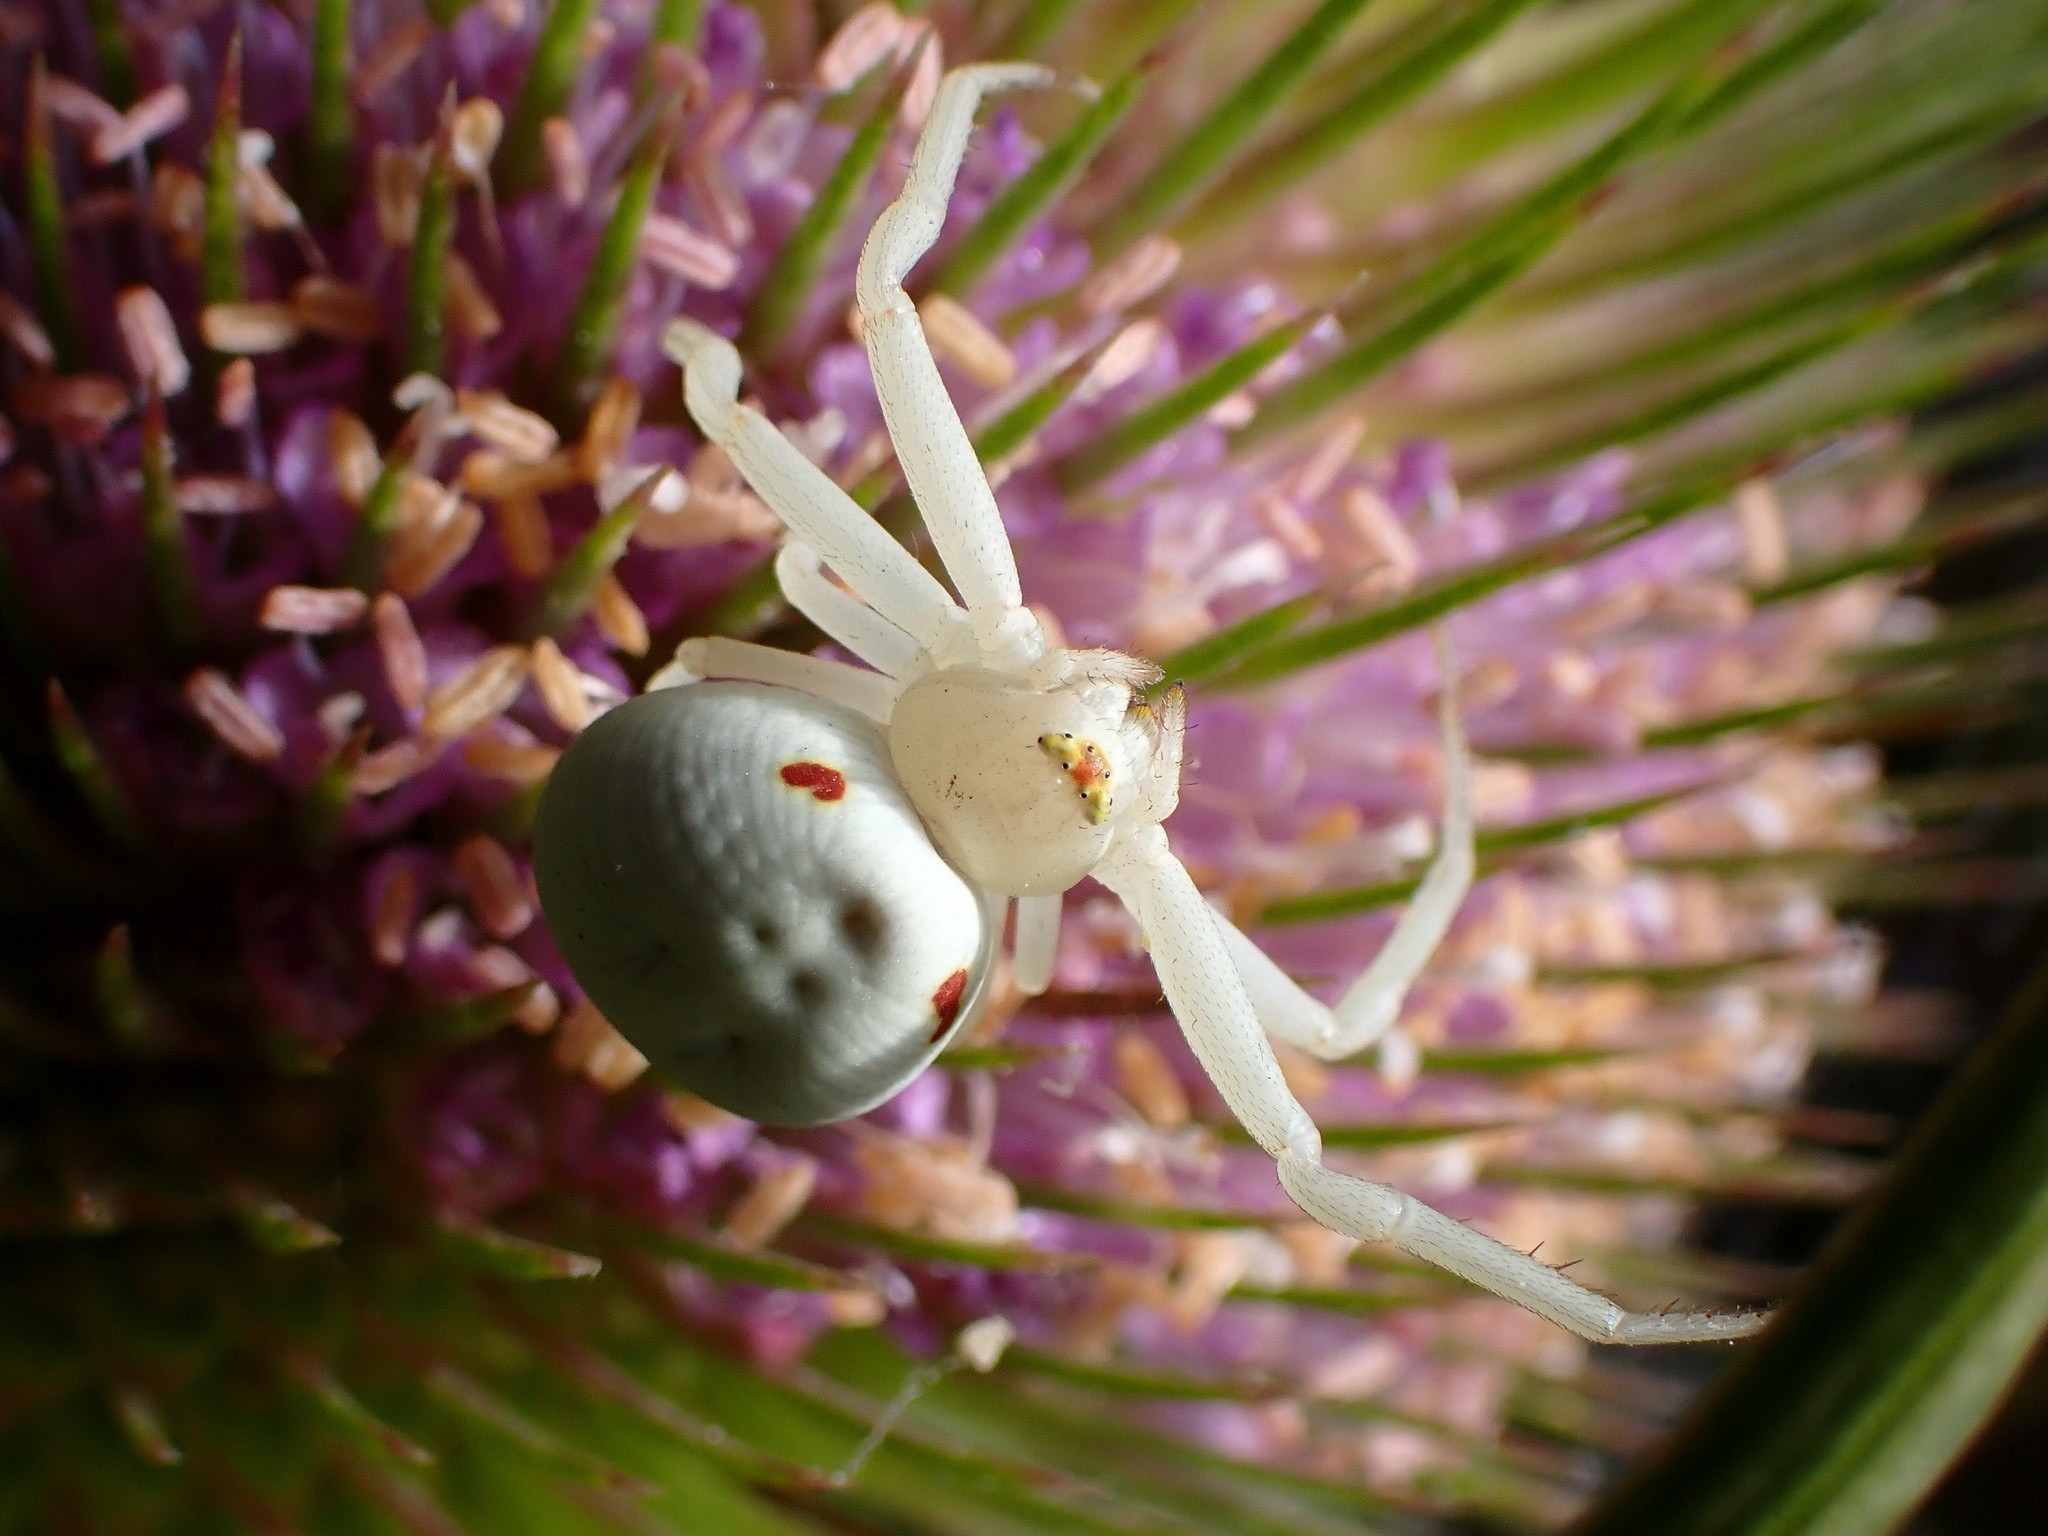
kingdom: Animalia
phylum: Arthropoda
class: Arachnida
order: Araneae
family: Thomisidae
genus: Misumena
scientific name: Misumena vatia
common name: Goldenrod crab spider
